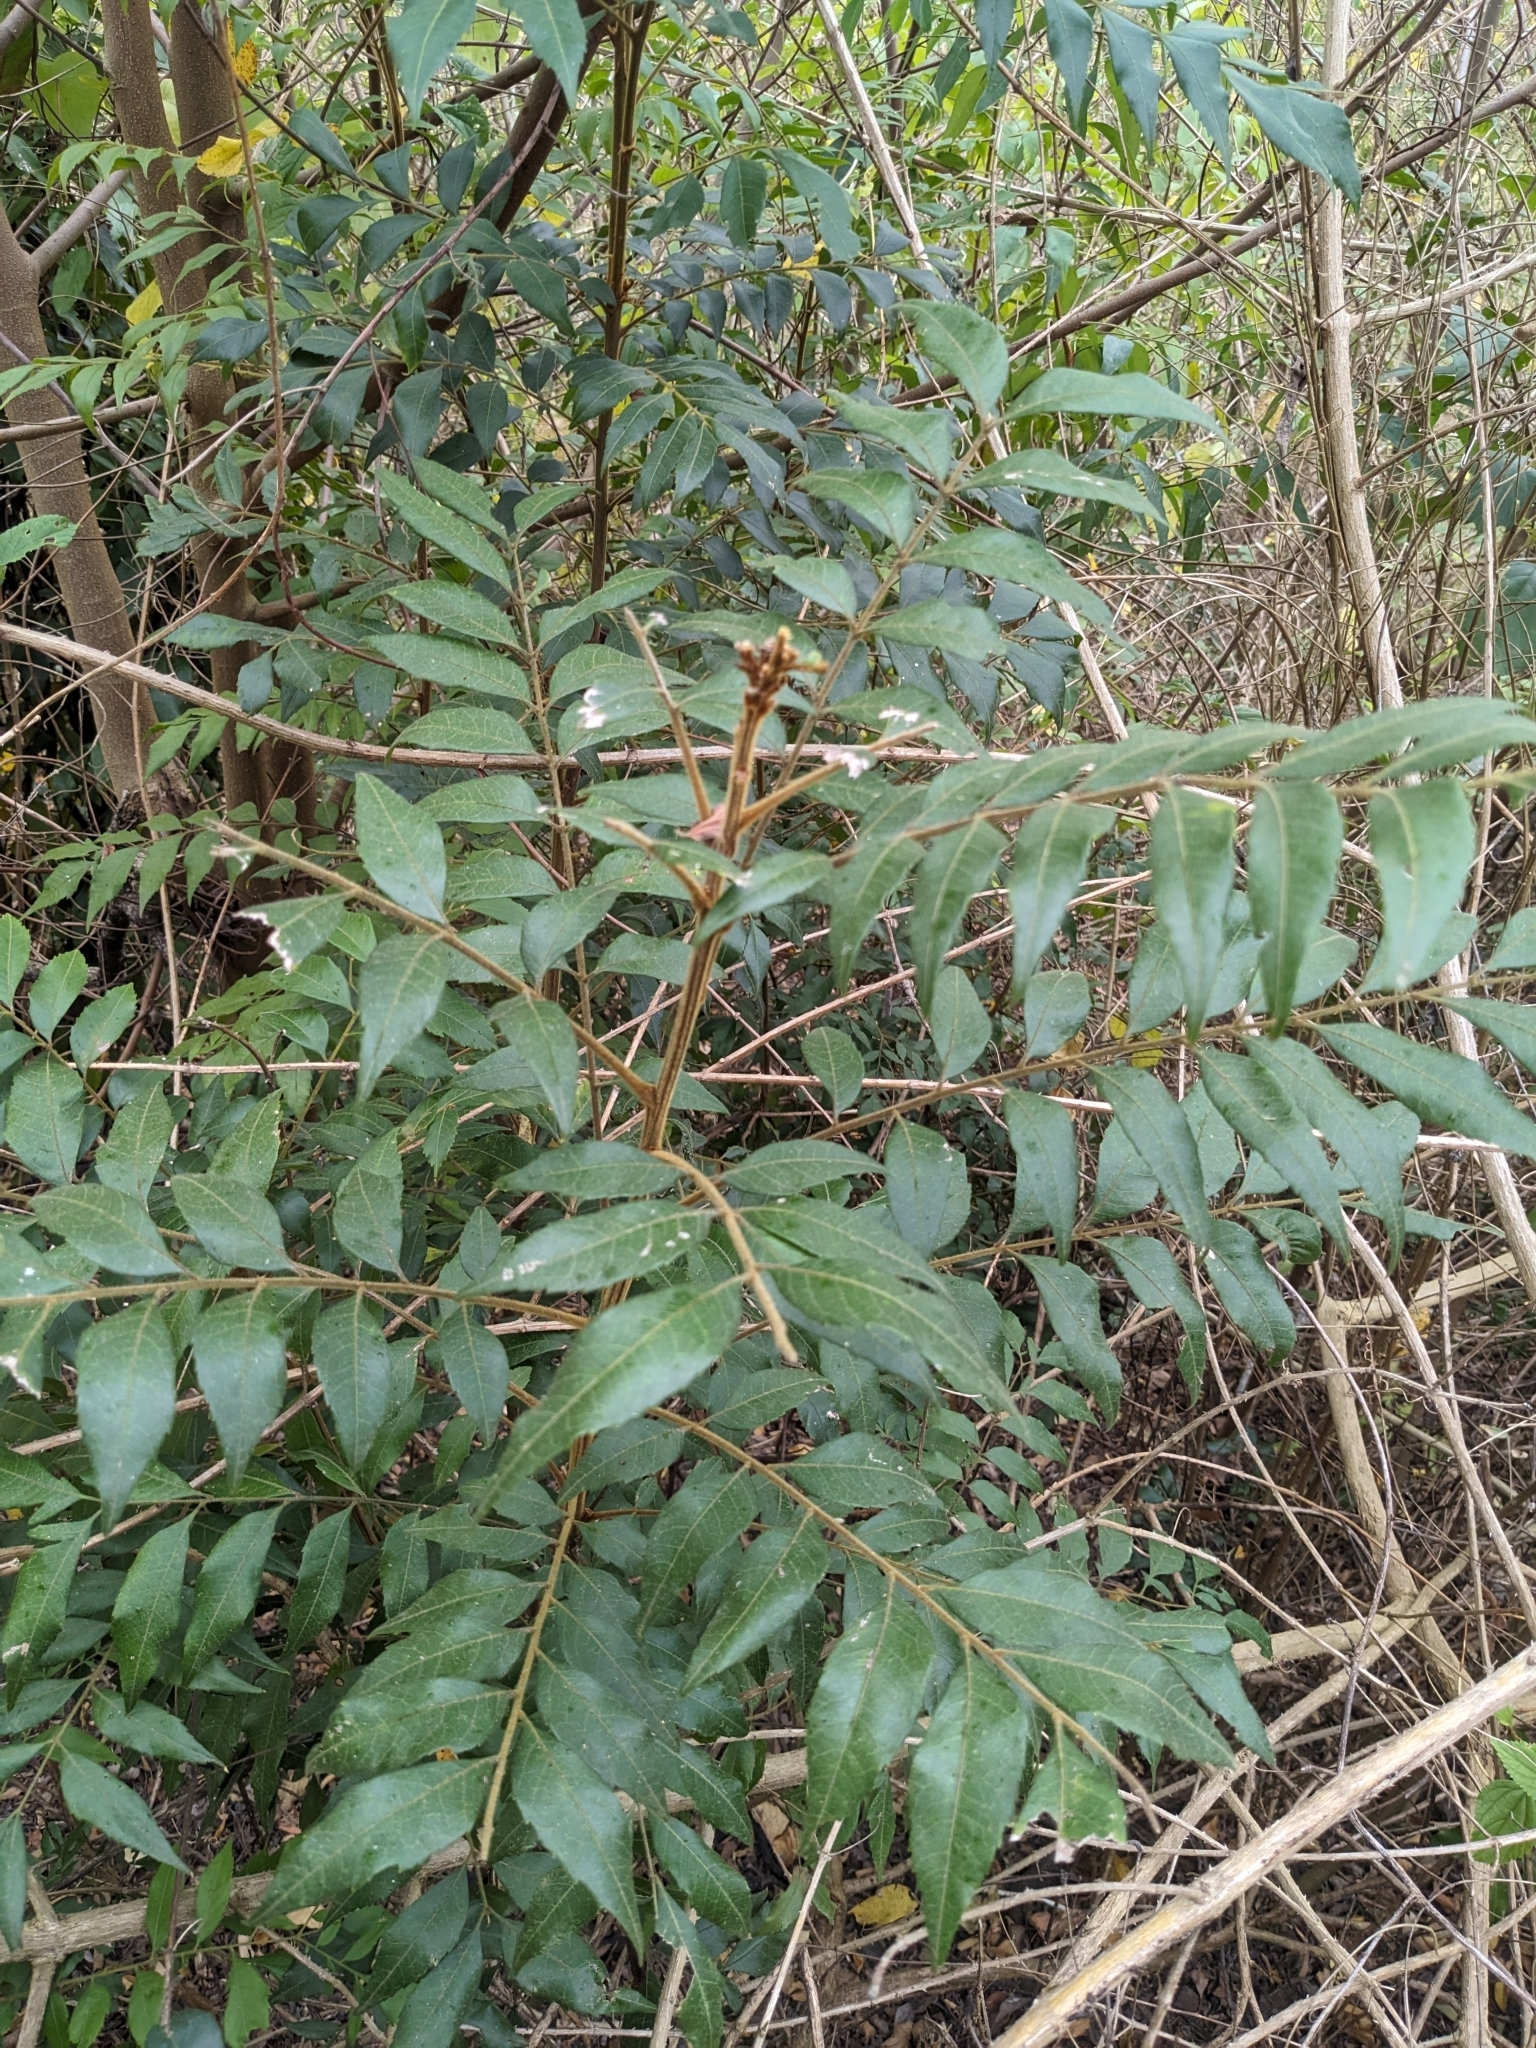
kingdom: Plantae
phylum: Tracheophyta
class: Magnoliopsida
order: Sapindales
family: Sapindaceae
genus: Jagera
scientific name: Jagera pseudorhus
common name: Fern-leaf-tamarind
